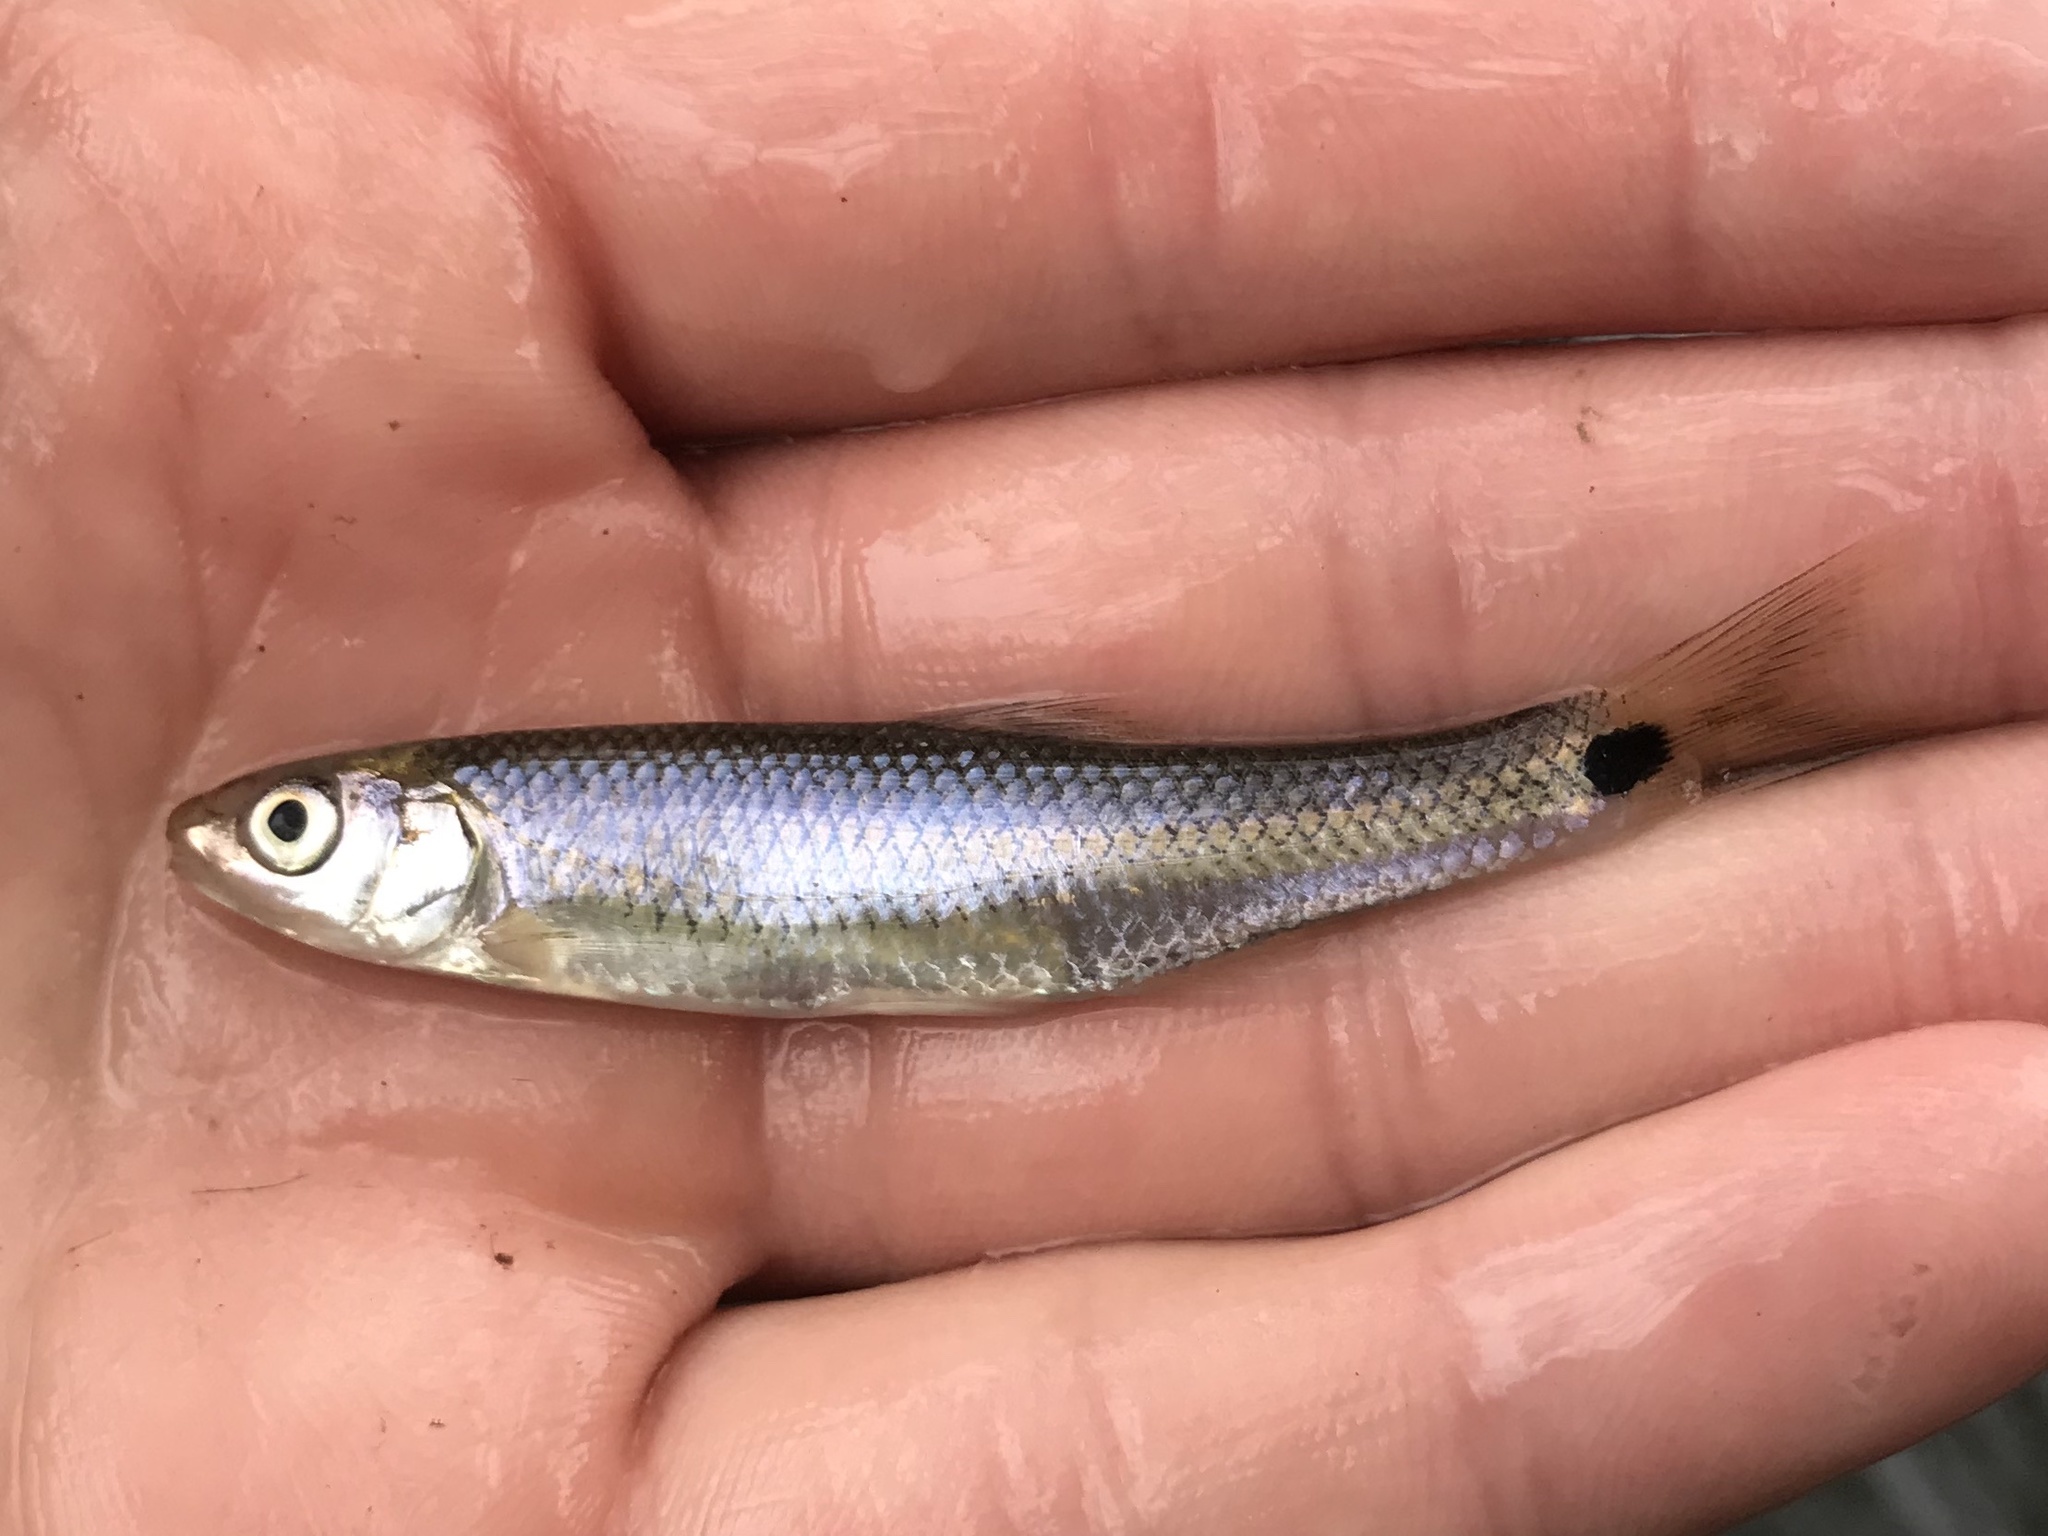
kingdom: Animalia
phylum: Chordata
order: Cypriniformes
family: Cyprinidae
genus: Cyprinella
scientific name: Cyprinella venusta
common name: Blacktail shiner
